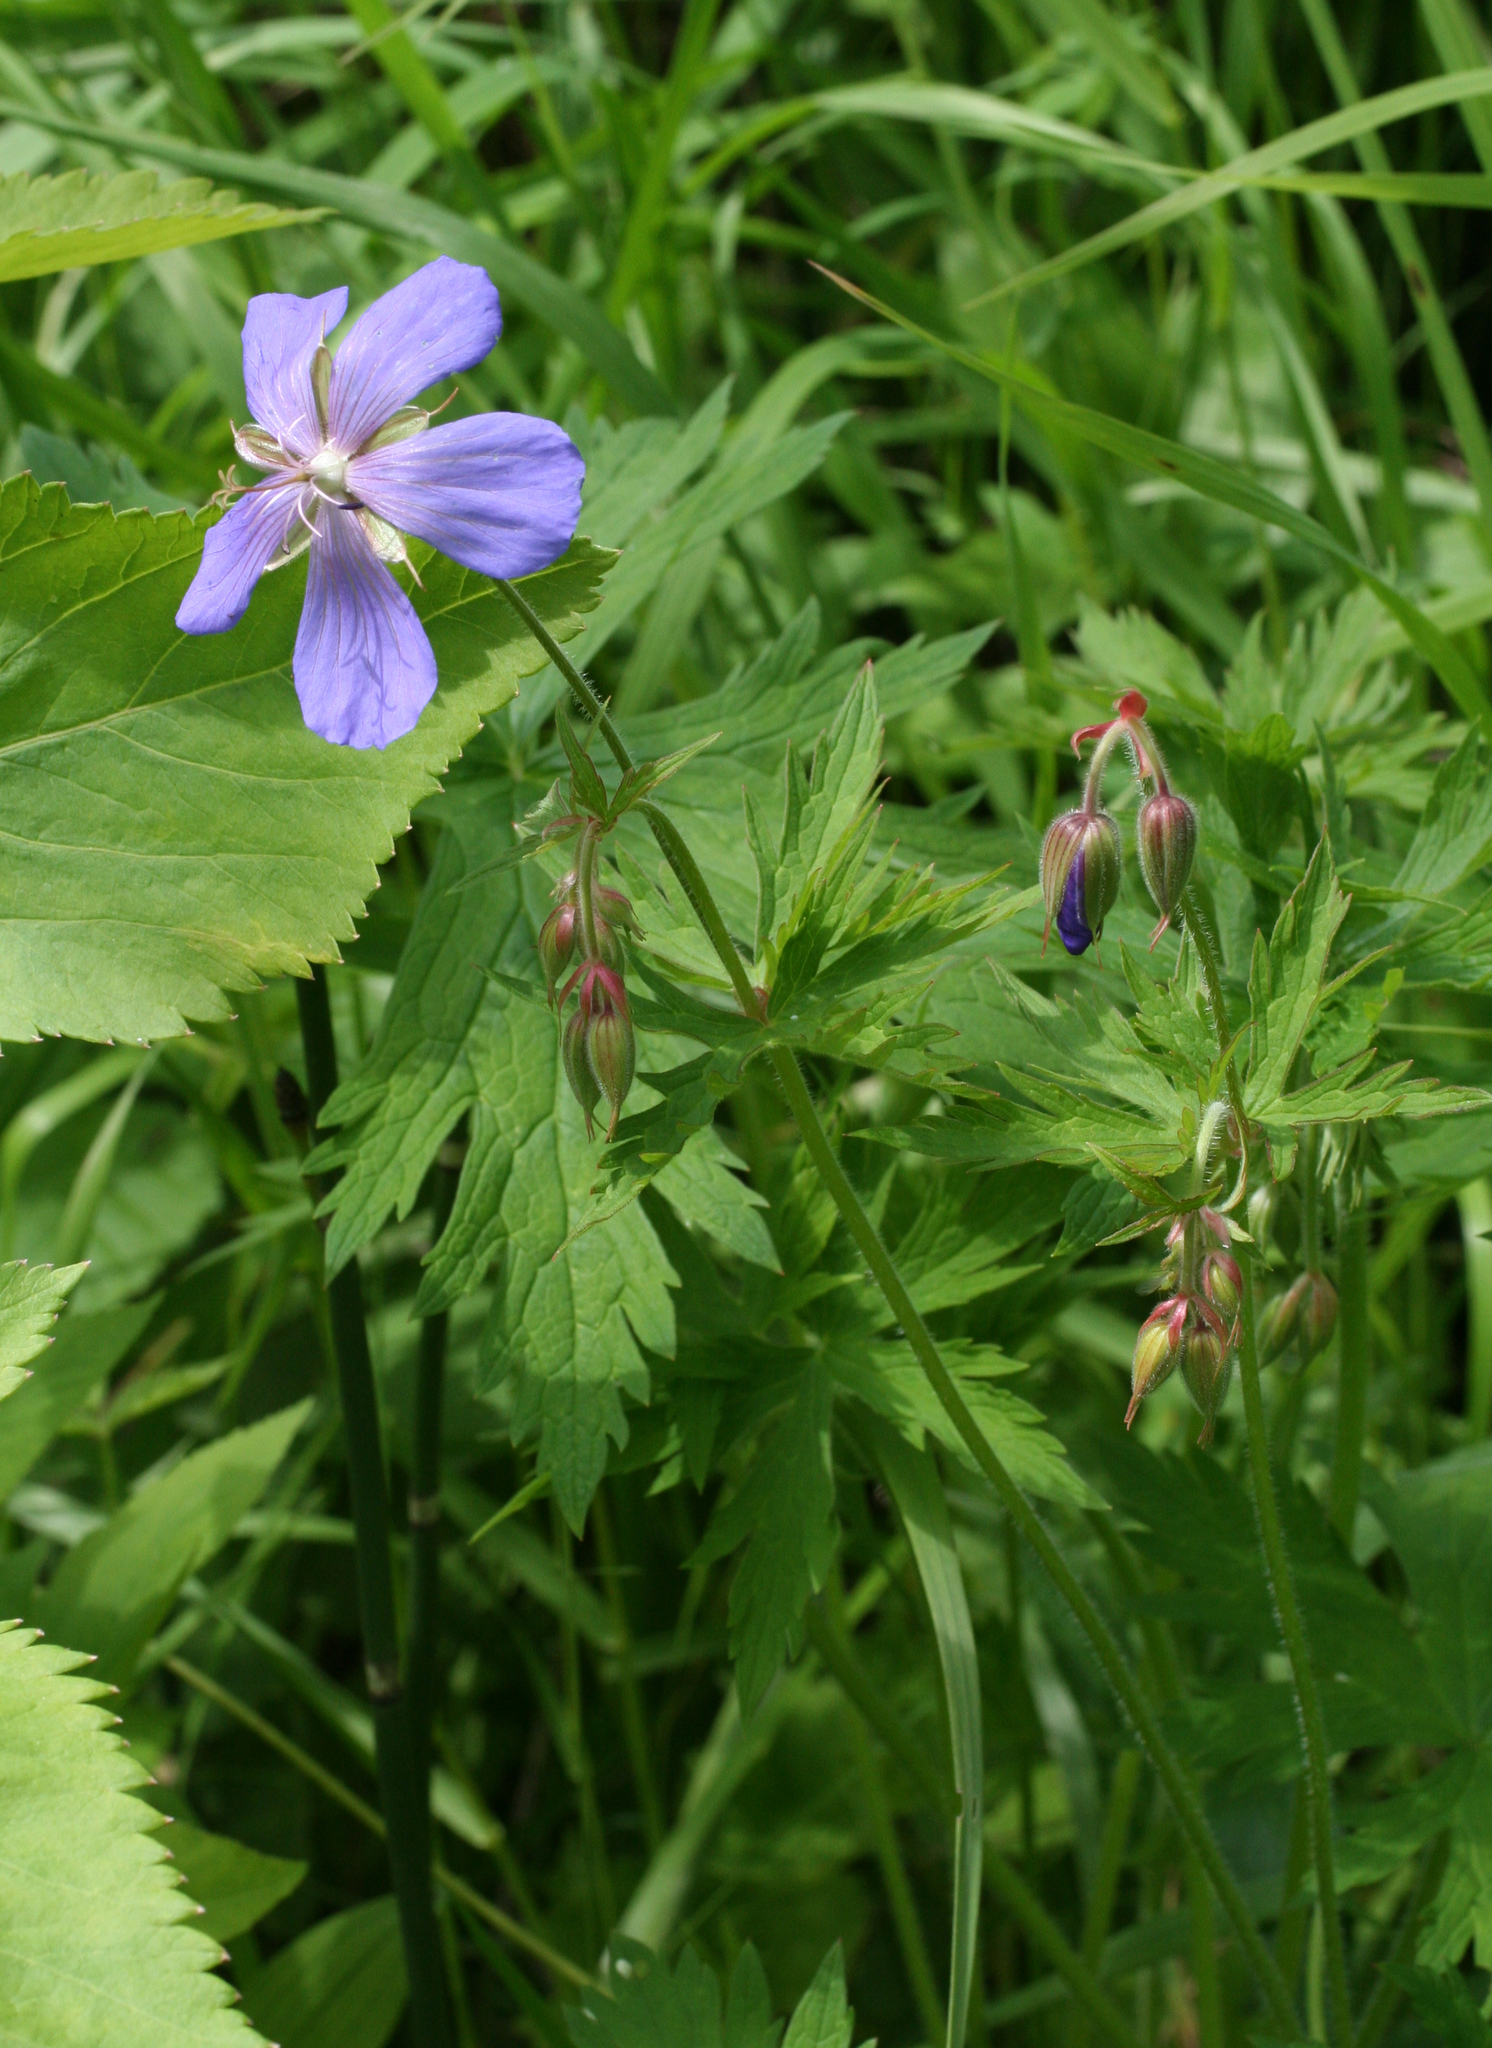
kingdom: Plantae
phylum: Tracheophyta
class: Magnoliopsida
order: Geraniales
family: Geraniaceae
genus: Geranium
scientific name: Geranium pratense
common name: Meadow crane's-bill
